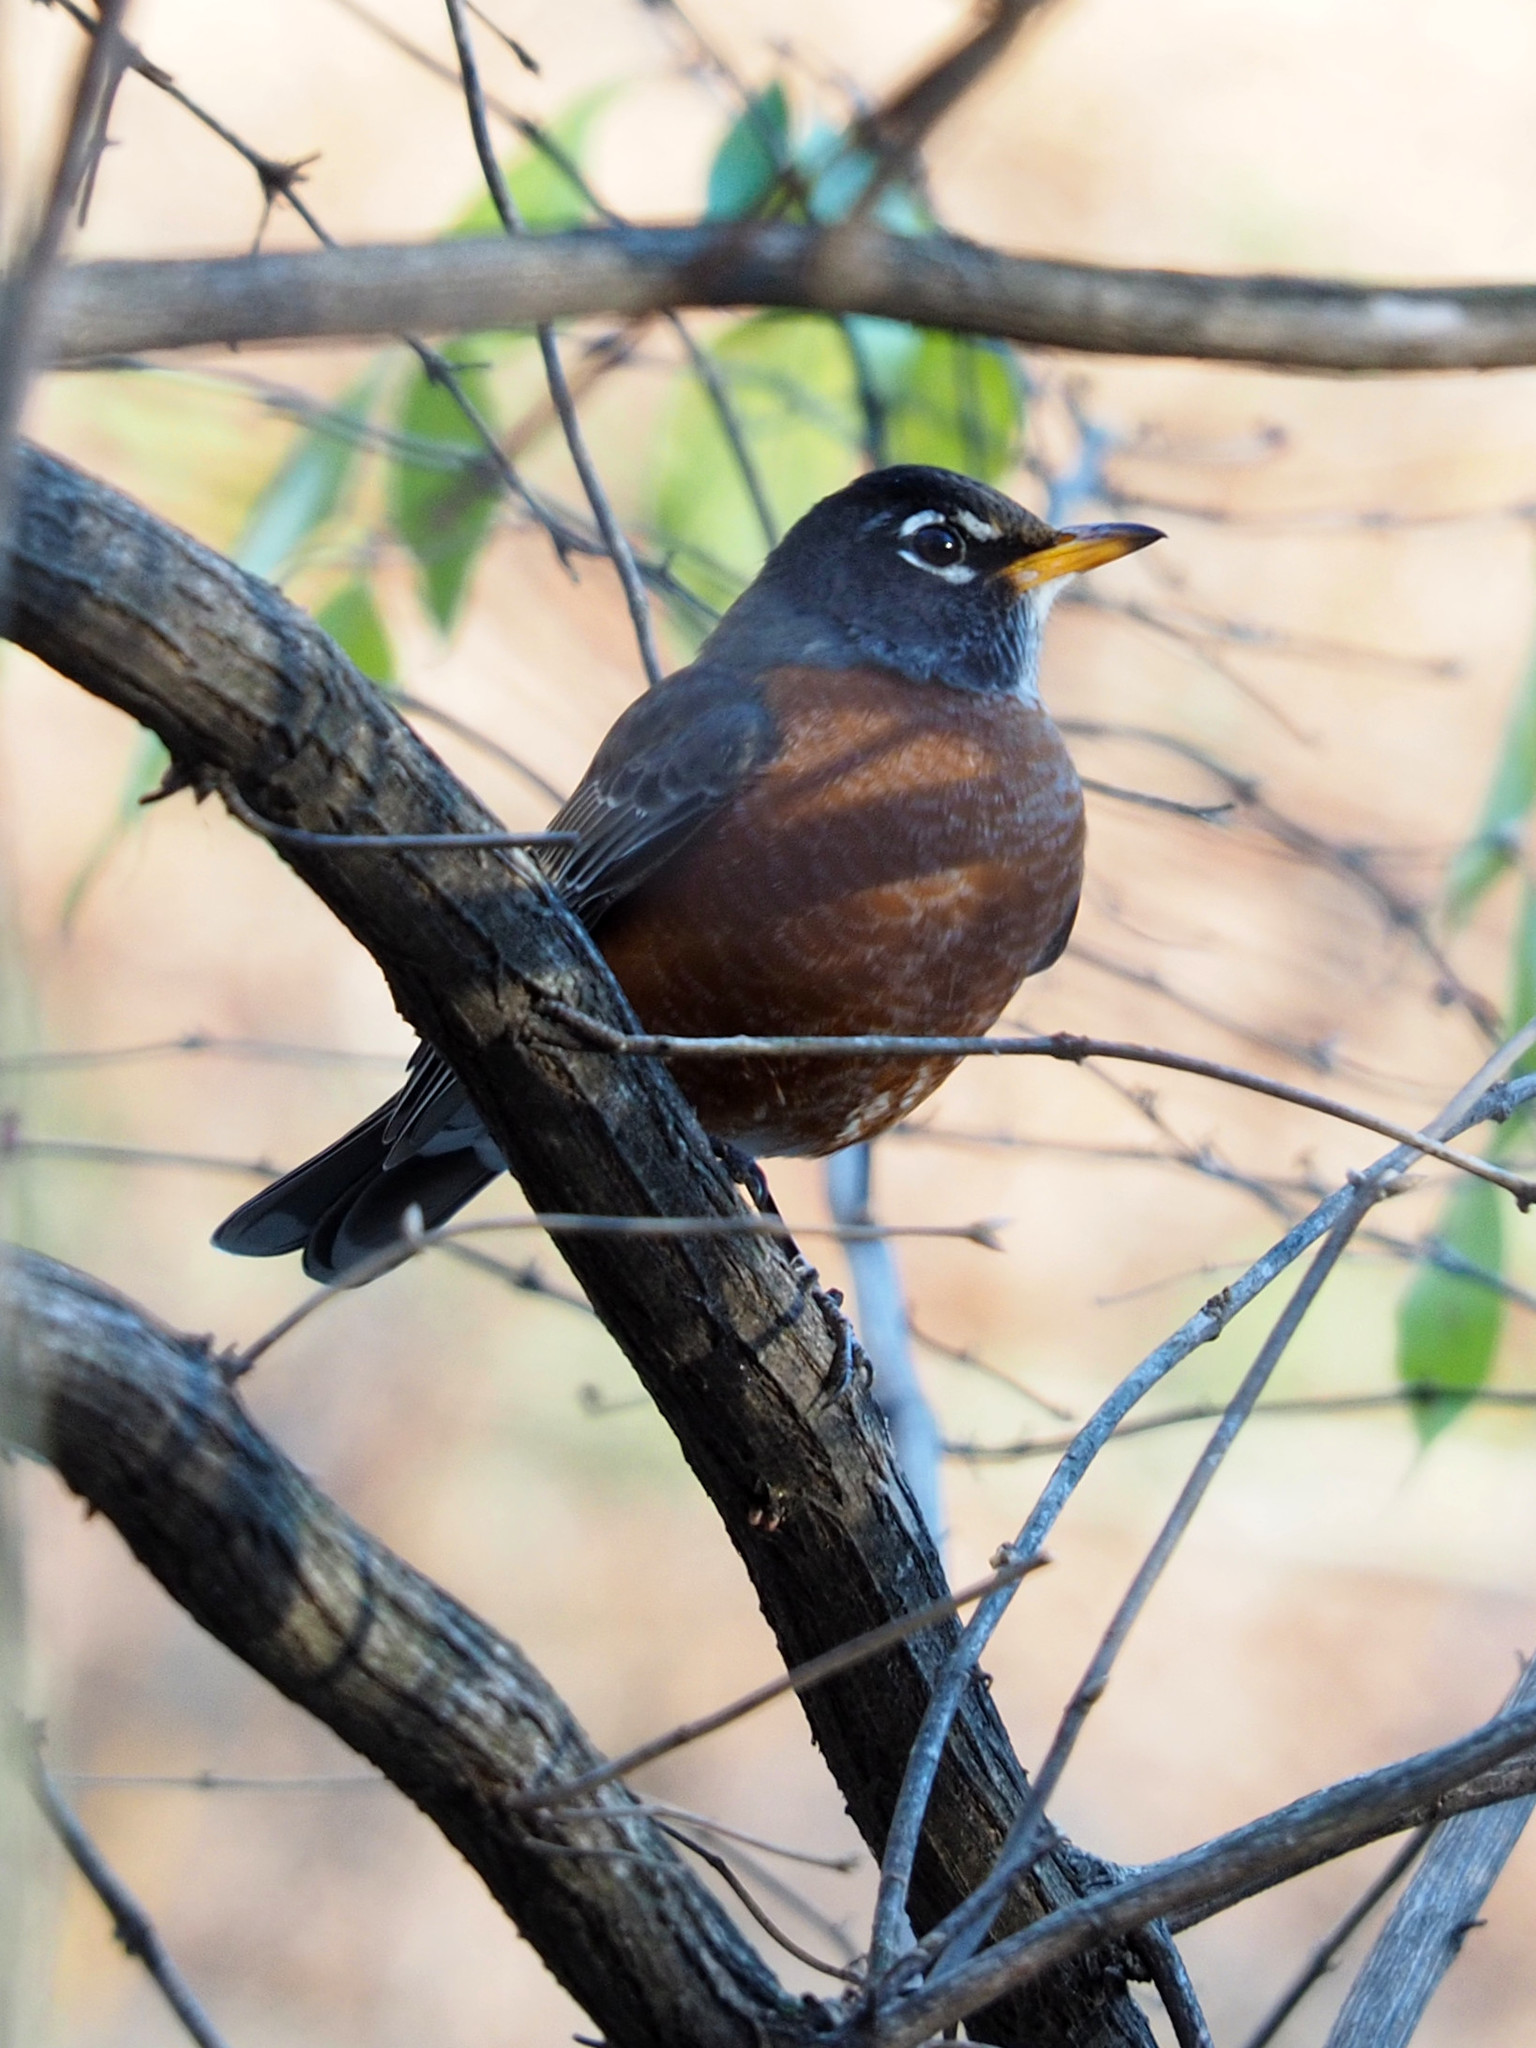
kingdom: Animalia
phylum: Chordata
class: Aves
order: Passeriformes
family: Turdidae
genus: Turdus
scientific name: Turdus migratorius
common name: American robin
